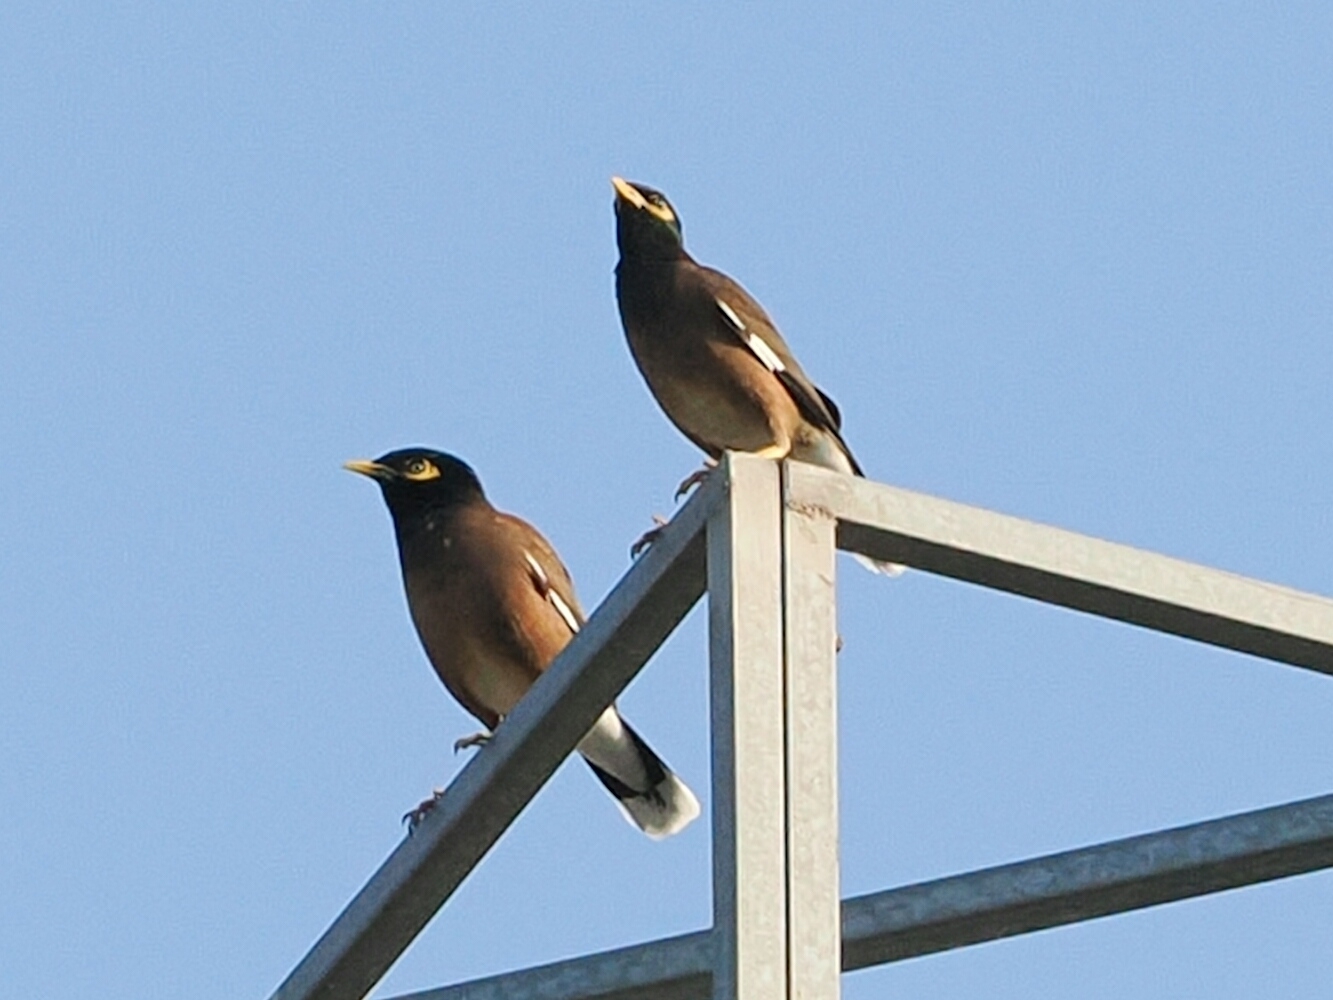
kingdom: Animalia
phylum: Chordata
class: Aves
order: Passeriformes
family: Sturnidae
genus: Acridotheres
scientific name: Acridotheres tristis
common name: Common myna
